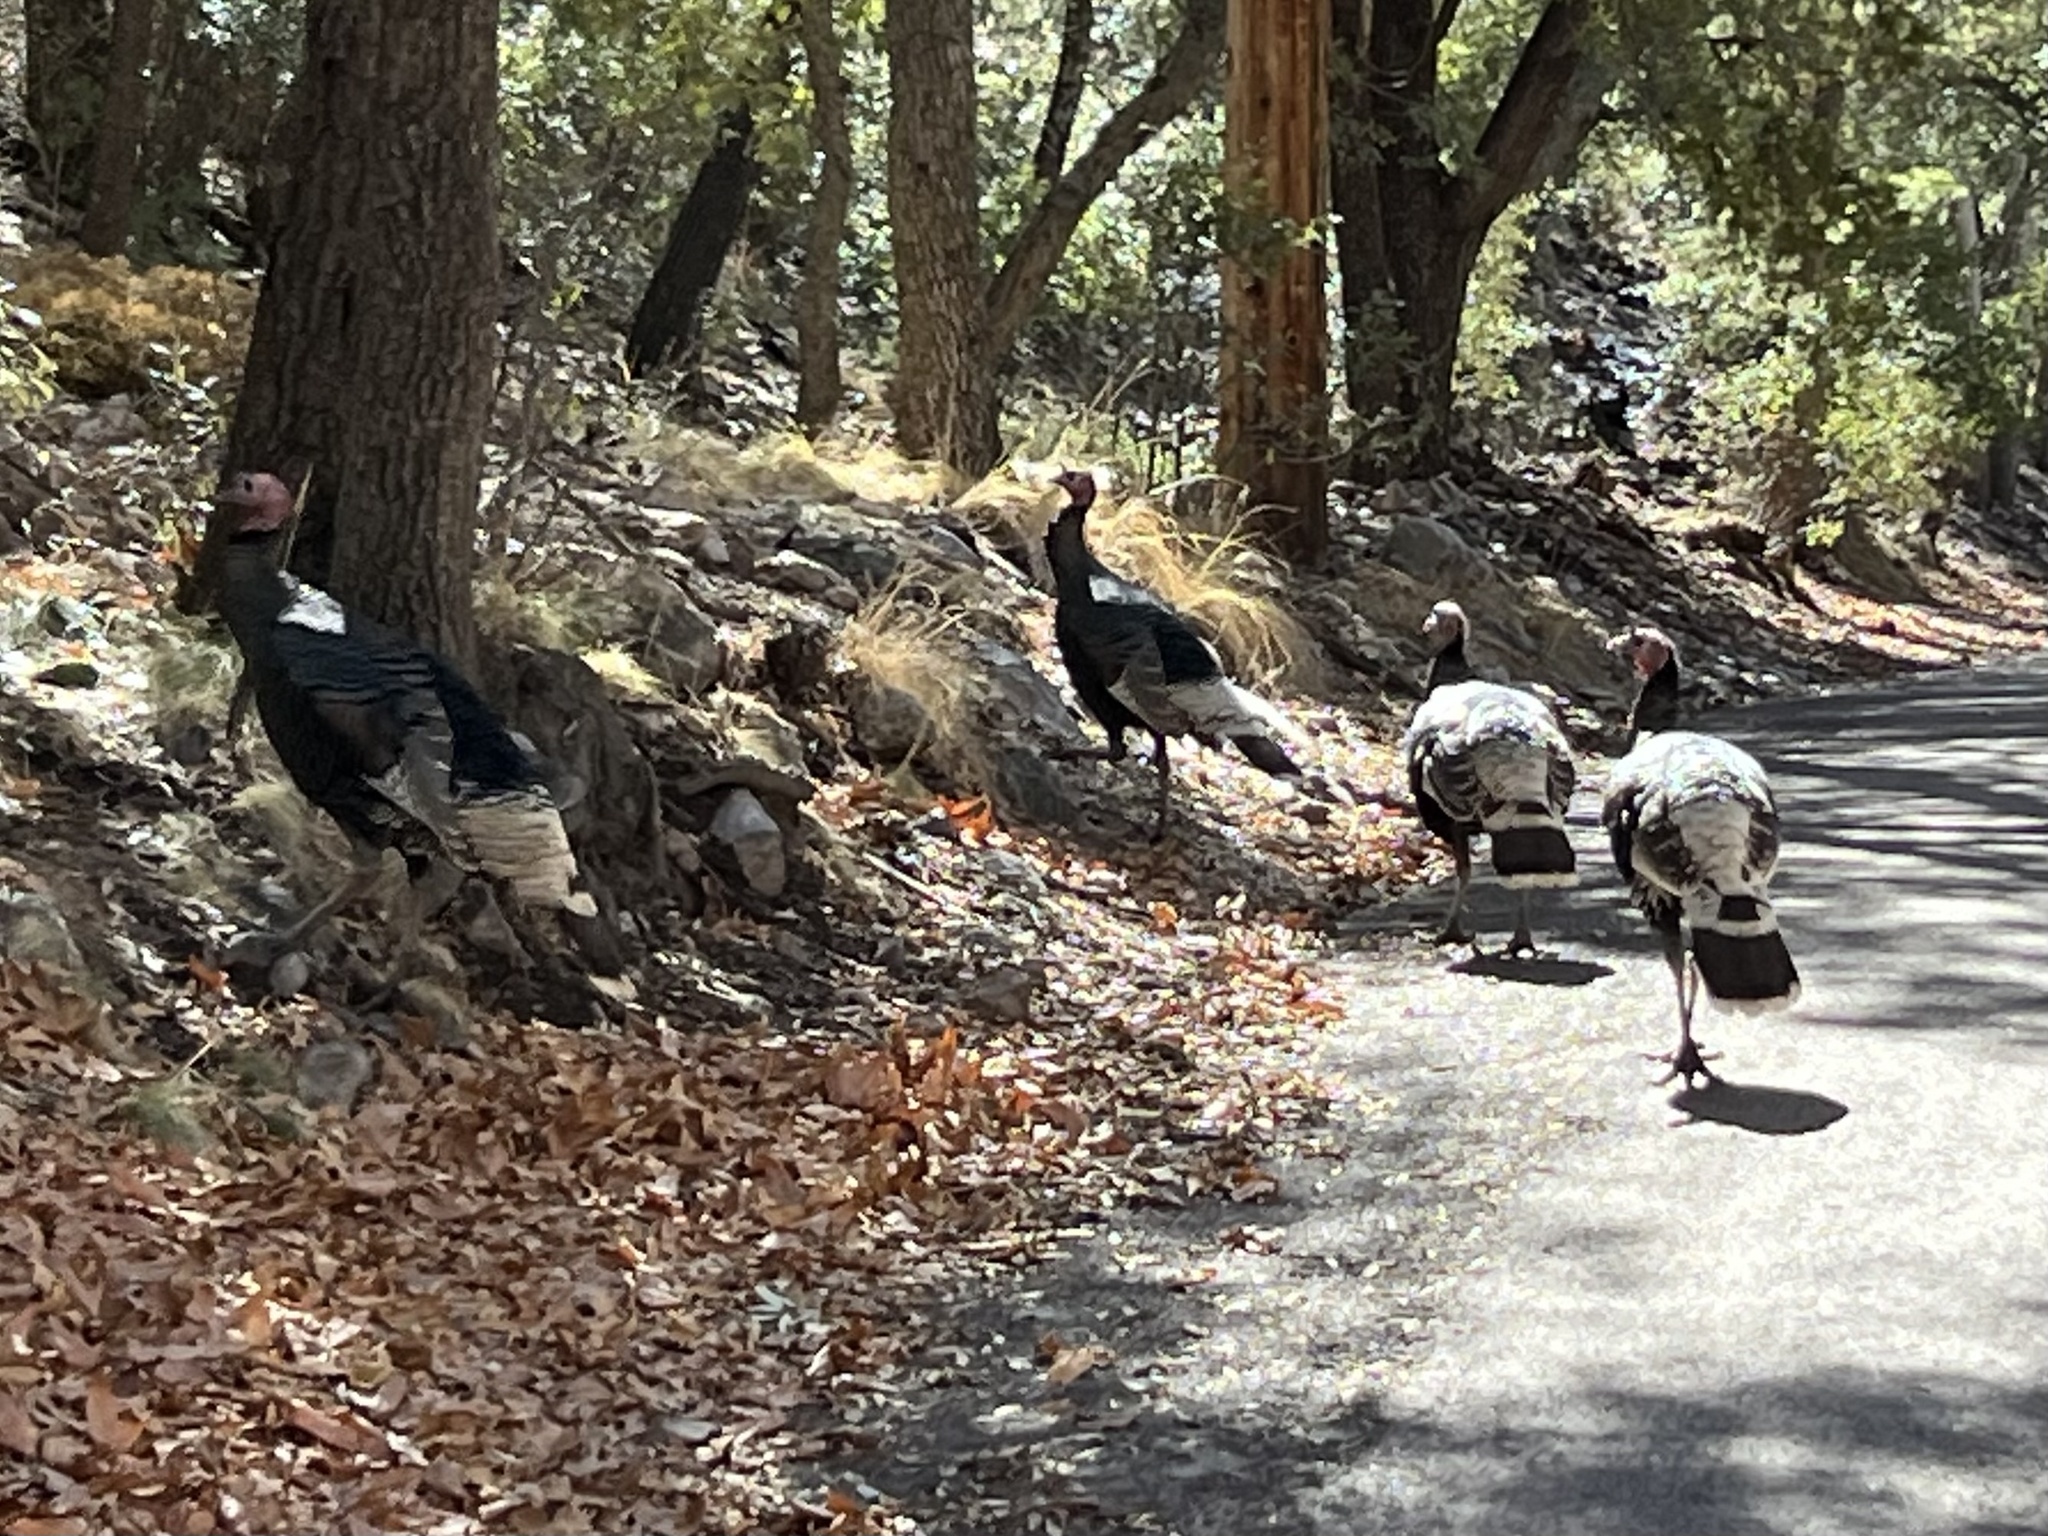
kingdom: Animalia
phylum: Chordata
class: Aves
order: Galliformes
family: Phasianidae
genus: Meleagris
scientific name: Meleagris gallopavo
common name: Wild turkey
